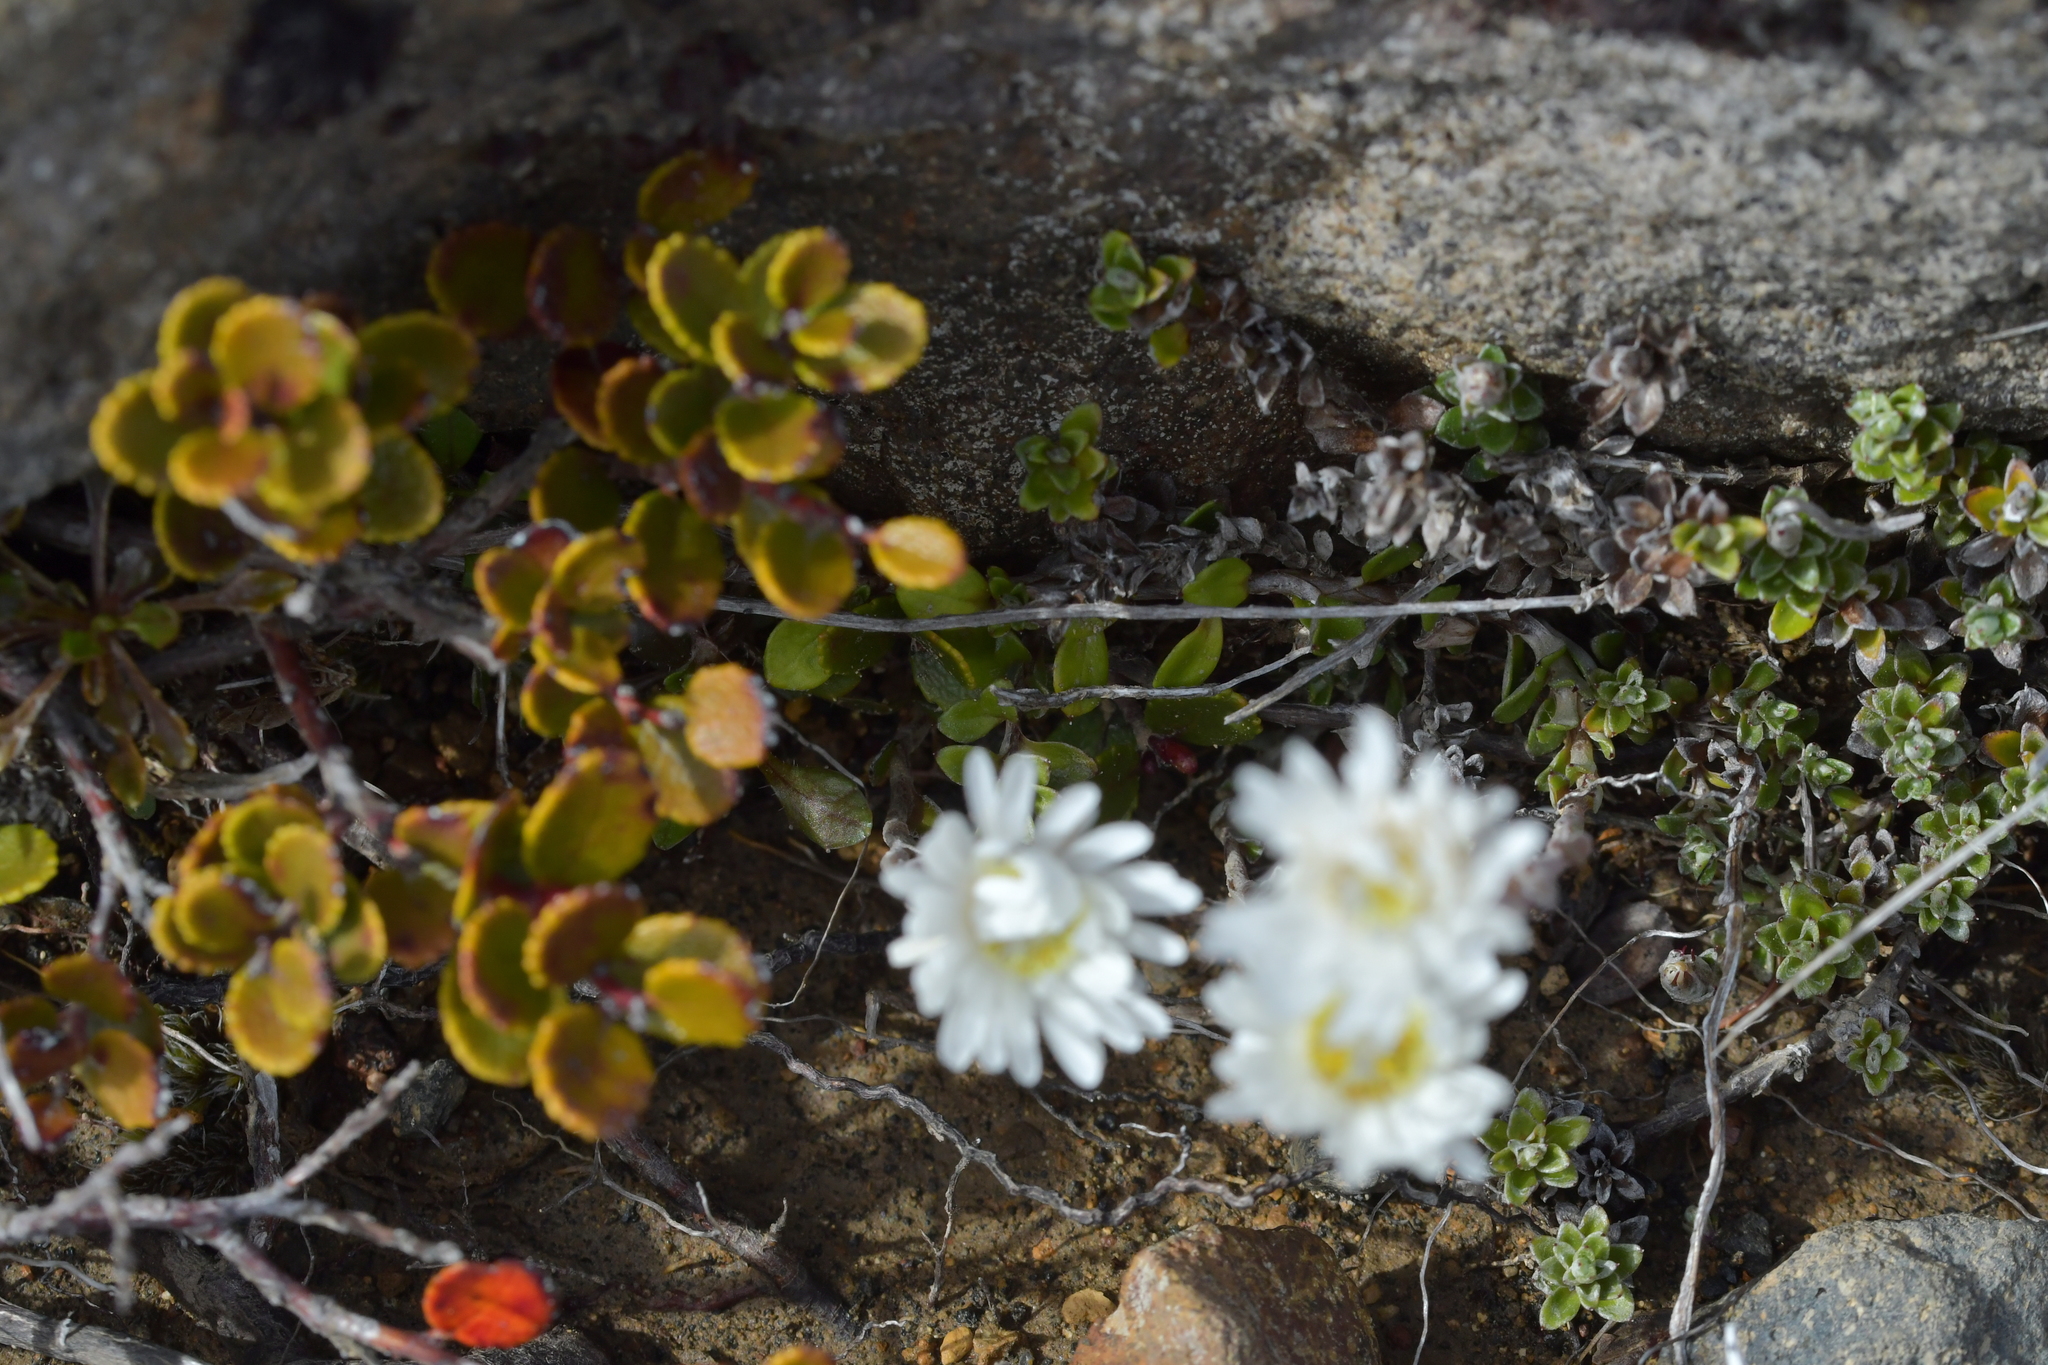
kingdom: Plantae
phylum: Tracheophyta
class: Magnoliopsida
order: Asterales
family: Asteraceae
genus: Anaphalioides
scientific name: Anaphalioides bellidioides
